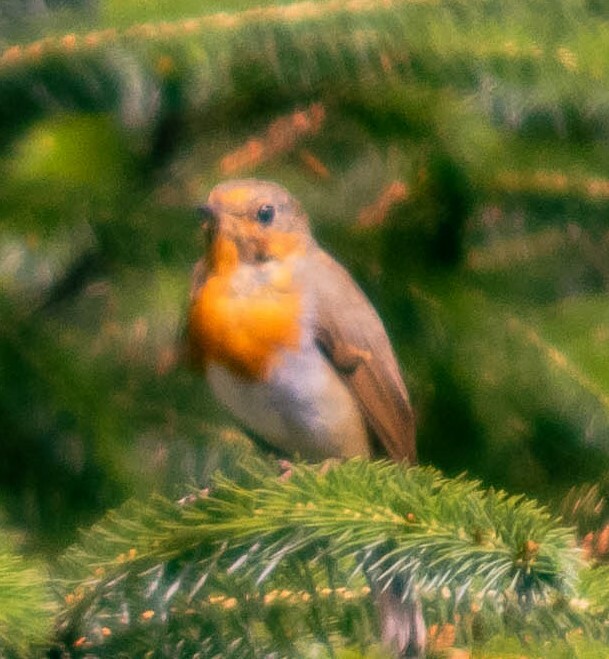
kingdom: Animalia
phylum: Chordata
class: Aves
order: Passeriformes
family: Muscicapidae
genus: Erithacus
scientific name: Erithacus rubecula
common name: European robin
